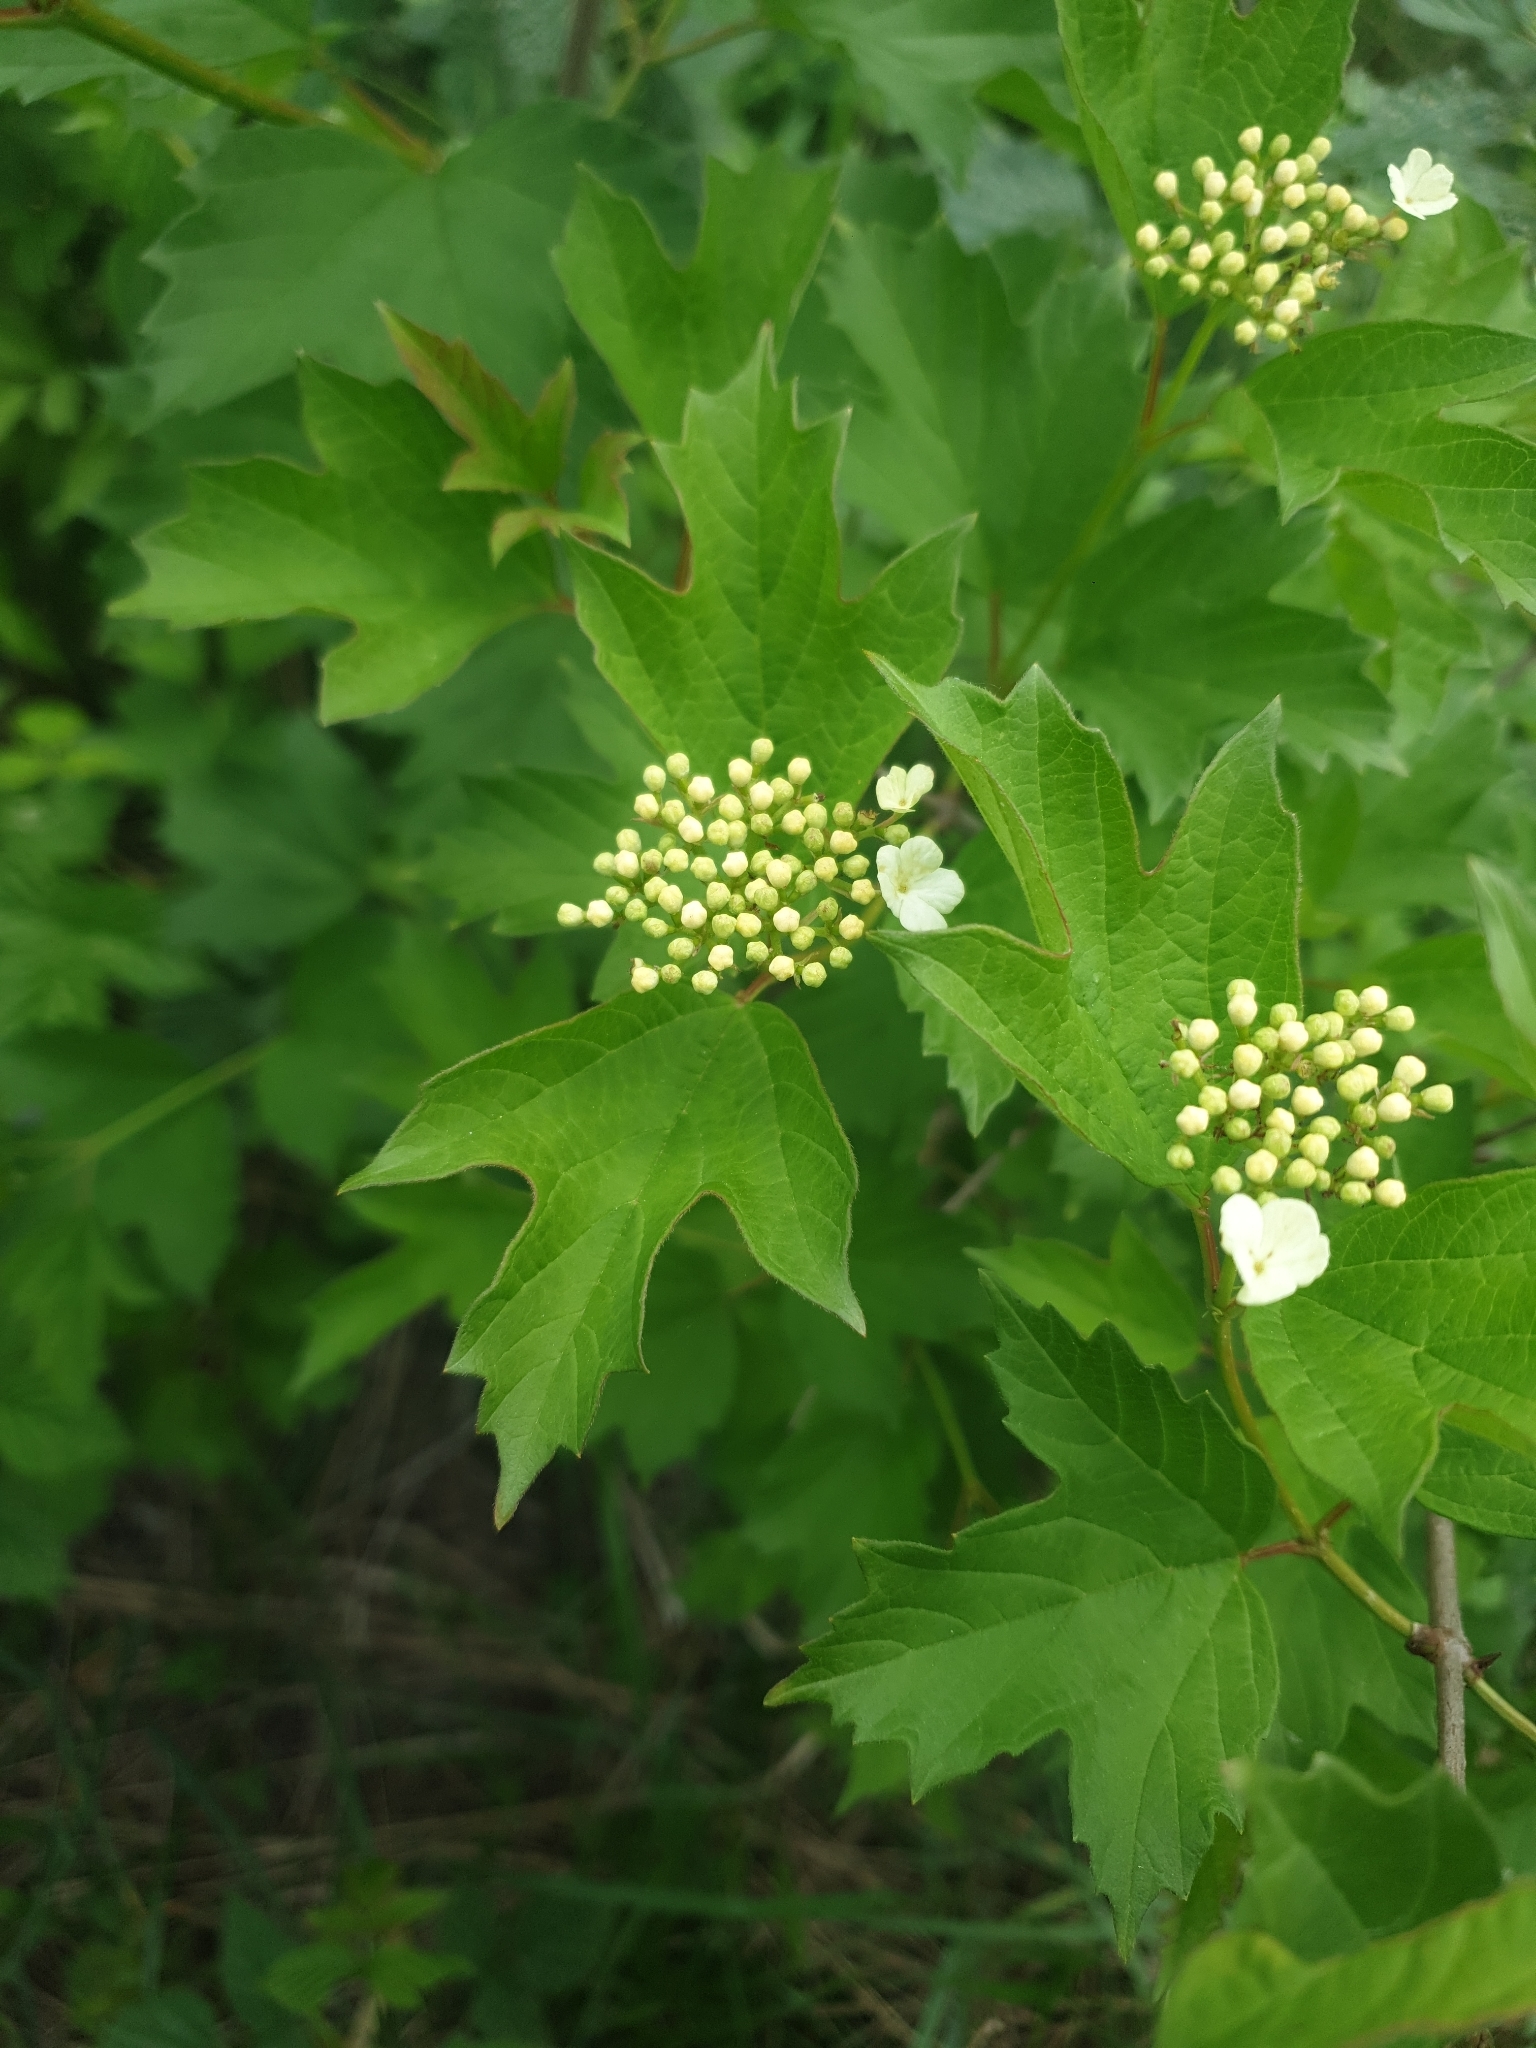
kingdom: Plantae
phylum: Tracheophyta
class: Magnoliopsida
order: Dipsacales
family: Viburnaceae
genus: Viburnum
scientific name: Viburnum opulus
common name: Guelder-rose
